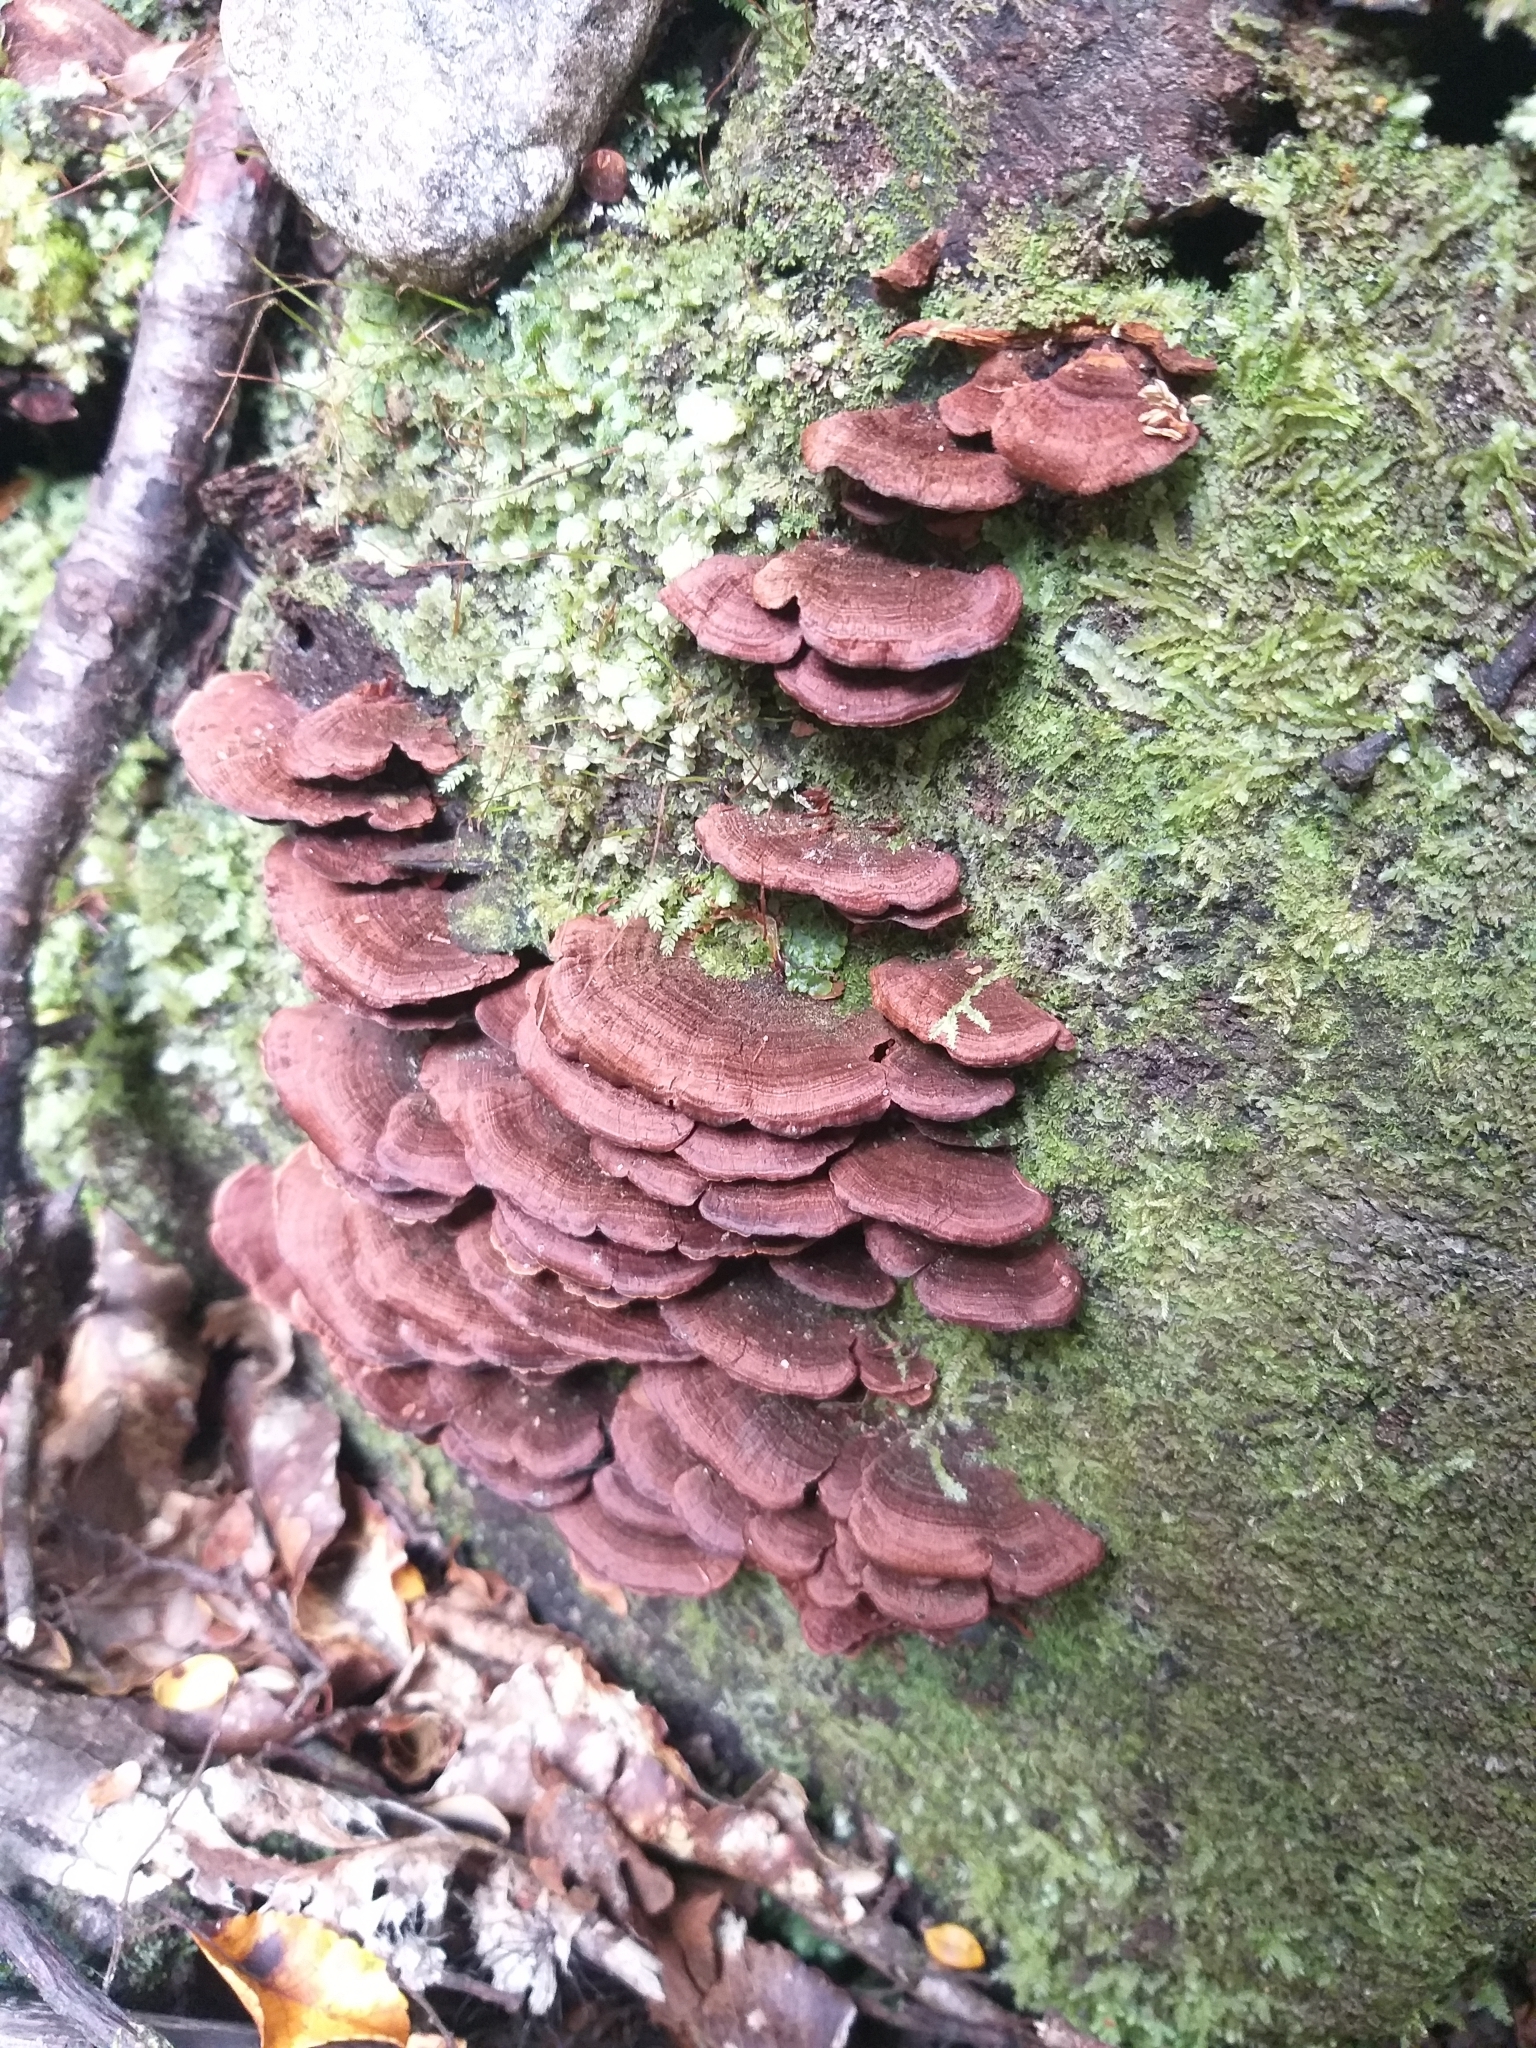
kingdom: Fungi
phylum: Basidiomycota
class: Agaricomycetes
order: Hymenochaetales
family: Hymenochaetaceae
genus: Hymenochaete
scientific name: Hymenochaete microcycla
